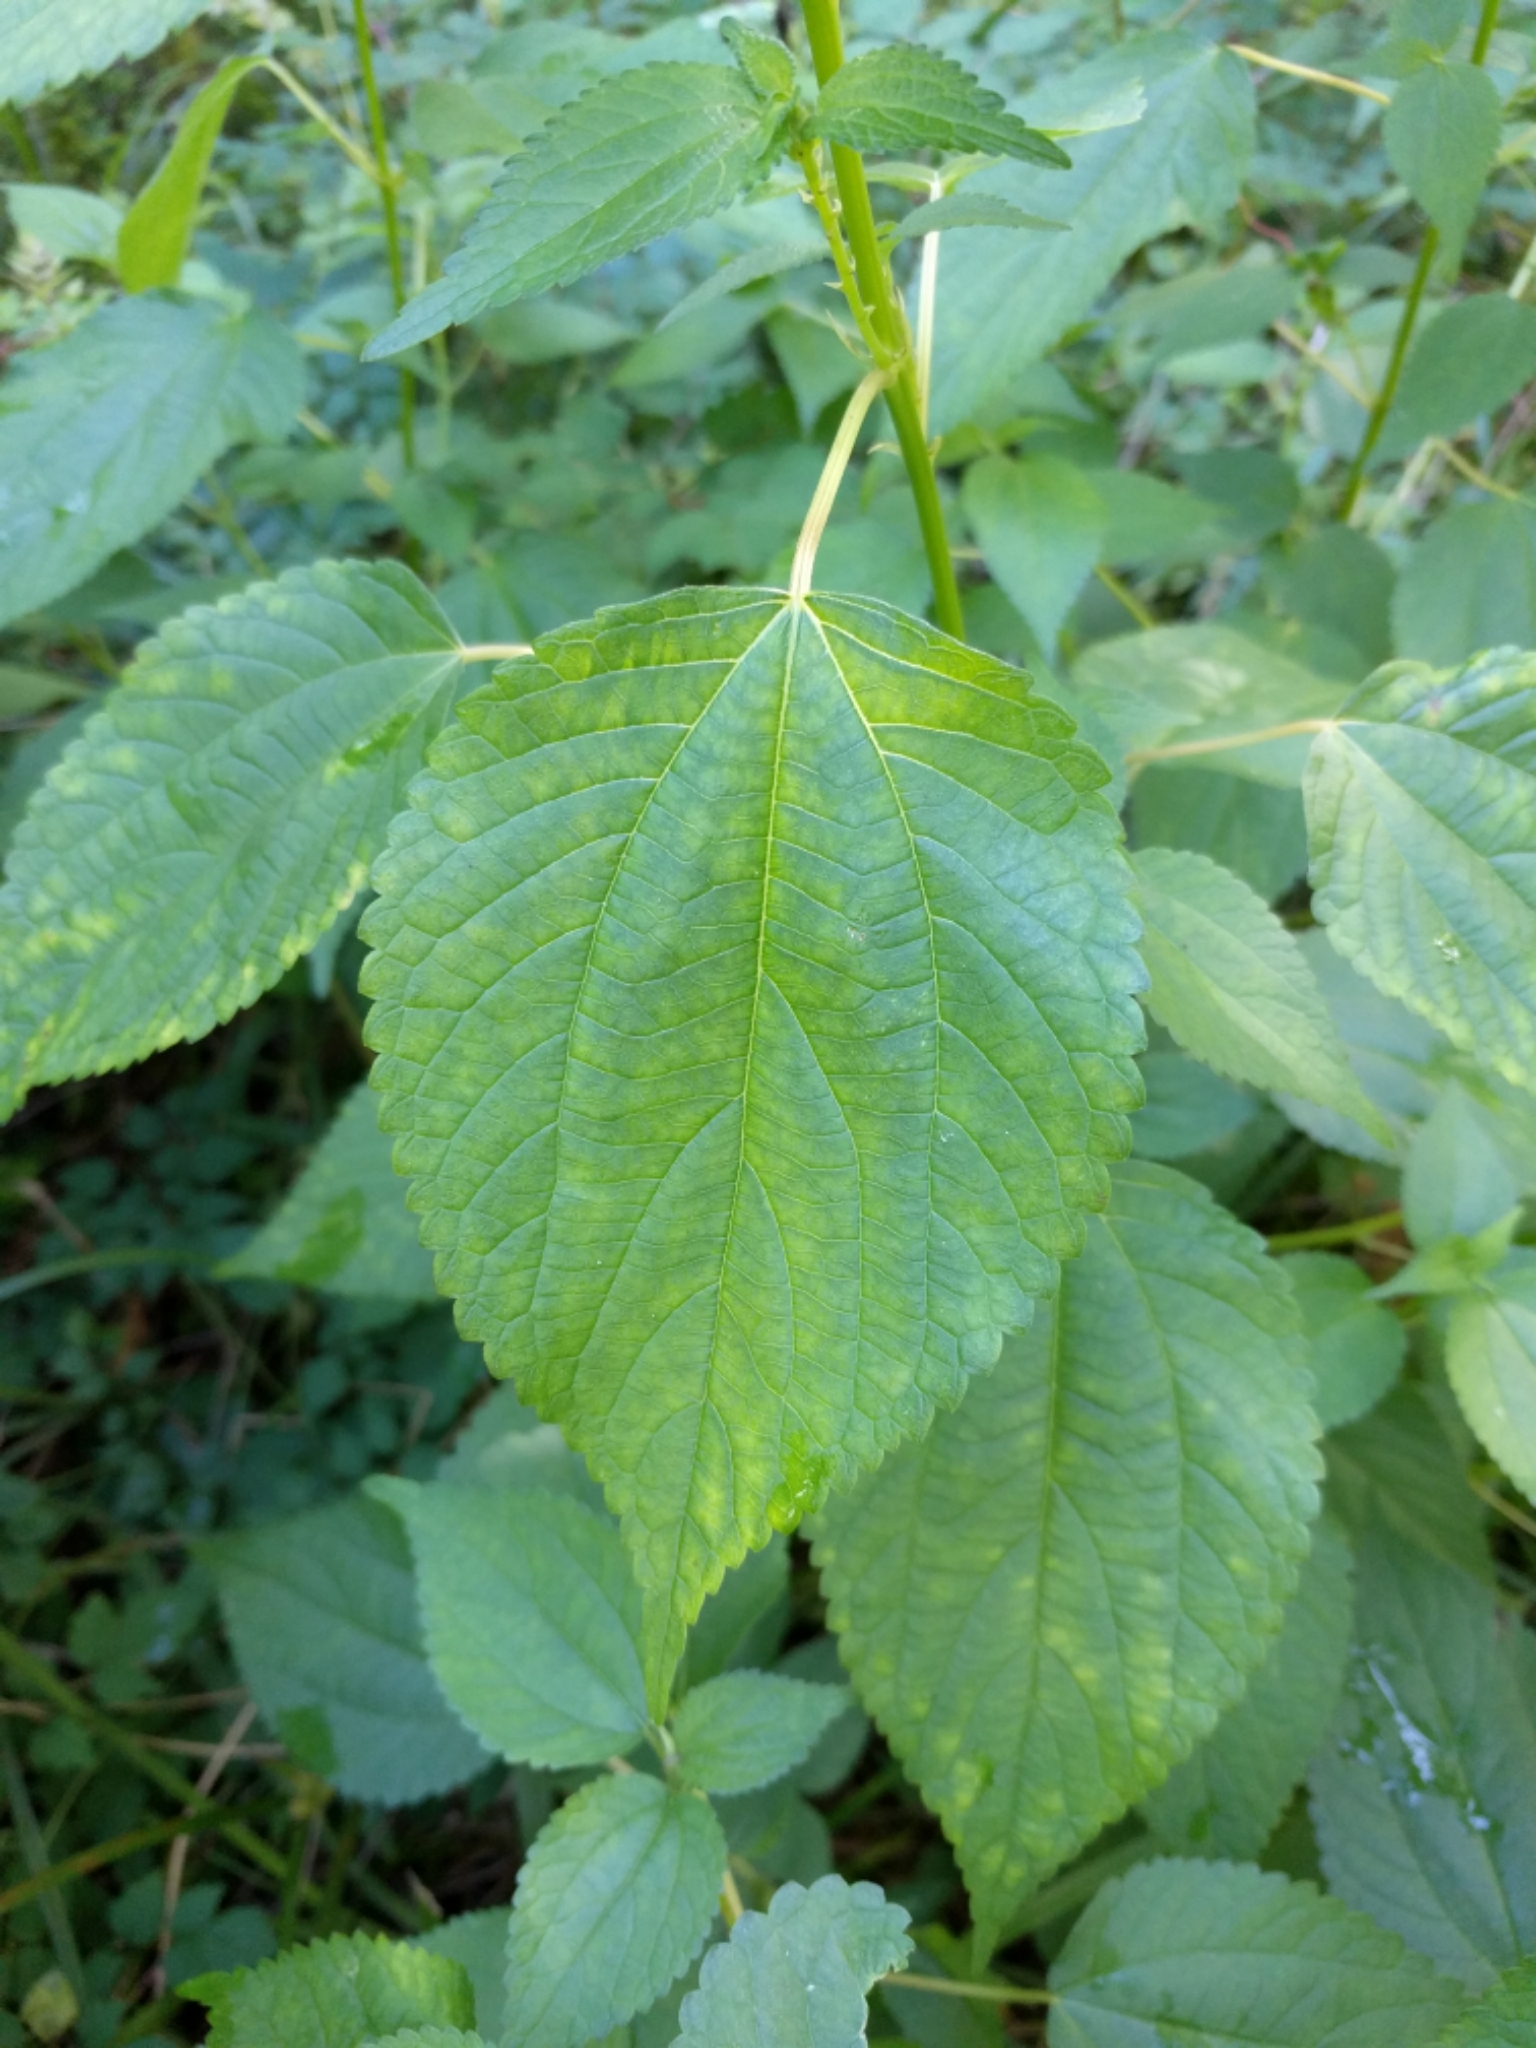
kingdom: Plantae
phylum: Tracheophyta
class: Magnoliopsida
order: Rosales
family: Urticaceae
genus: Boehmeria
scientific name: Boehmeria cylindrica
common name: Bog-hemp
